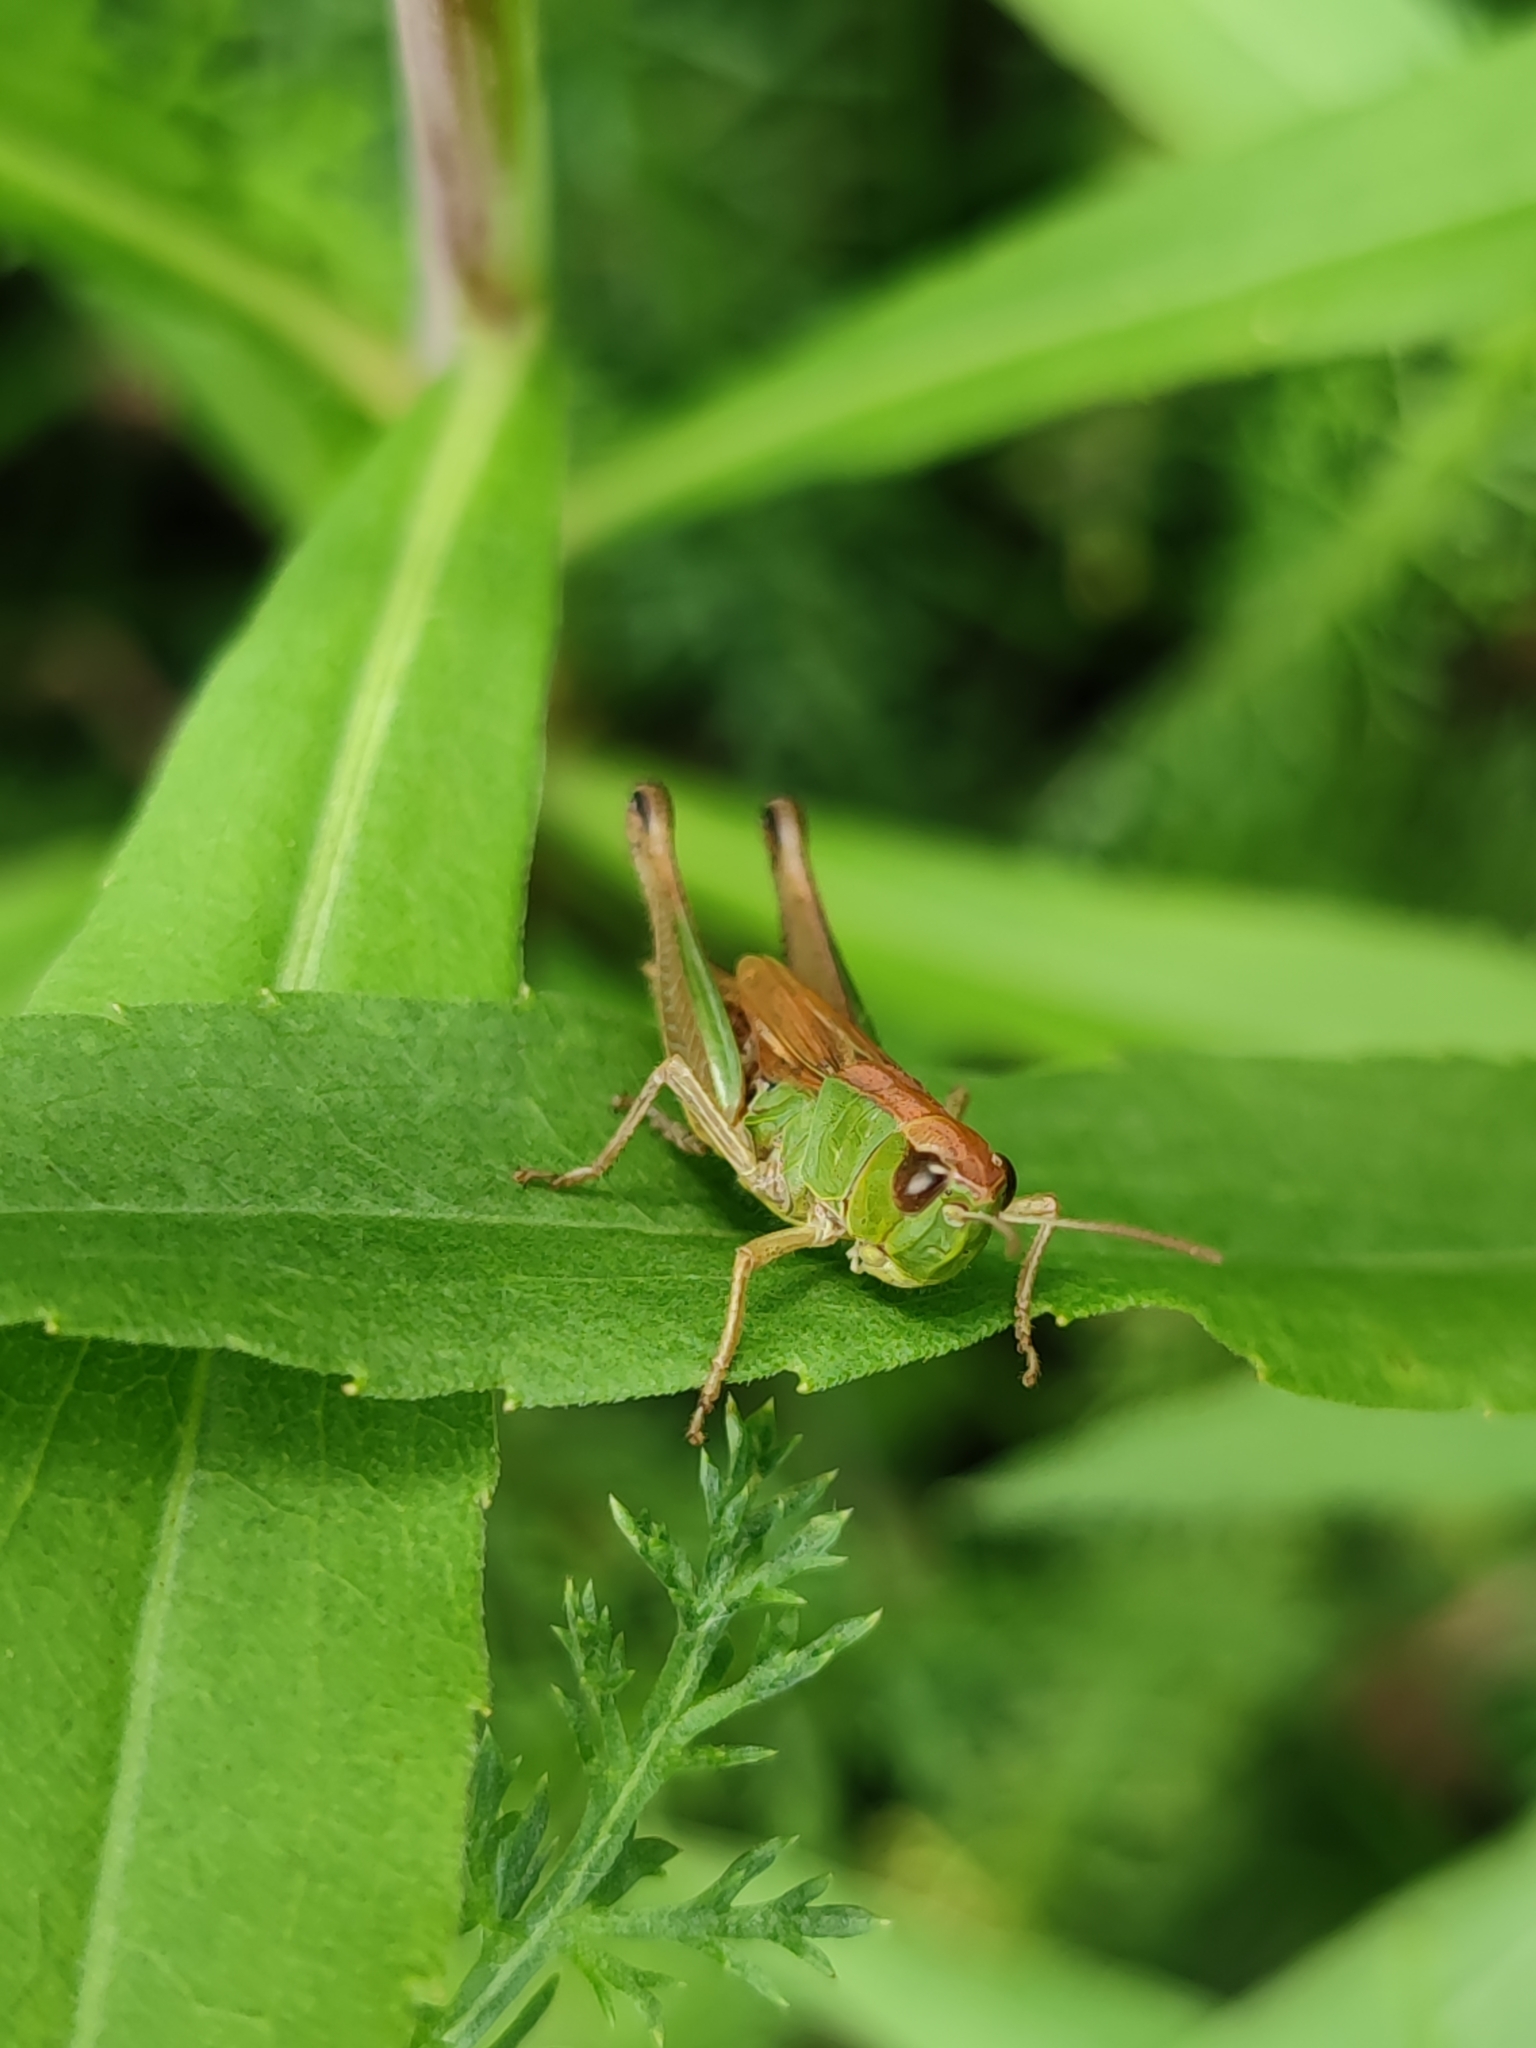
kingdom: Animalia
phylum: Arthropoda
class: Insecta
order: Orthoptera
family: Acrididae
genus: Pseudochorthippus
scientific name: Pseudochorthippus parallelus
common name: Meadow grasshopper
